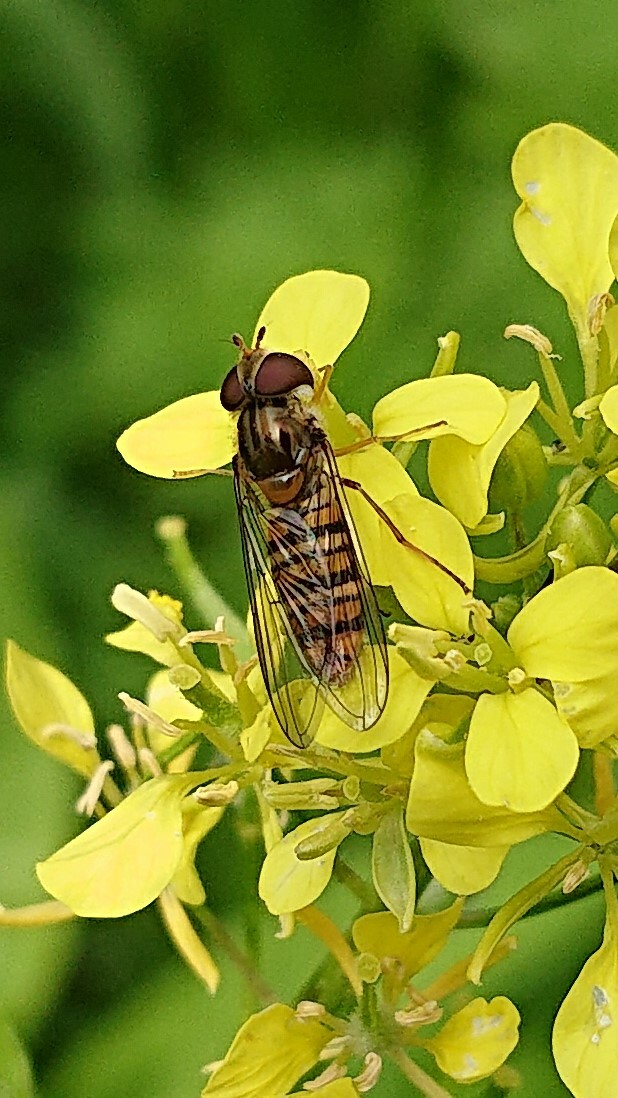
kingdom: Animalia
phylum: Arthropoda
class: Insecta
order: Diptera
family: Syrphidae
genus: Episyrphus
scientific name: Episyrphus balteatus
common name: Marmalade hoverfly
